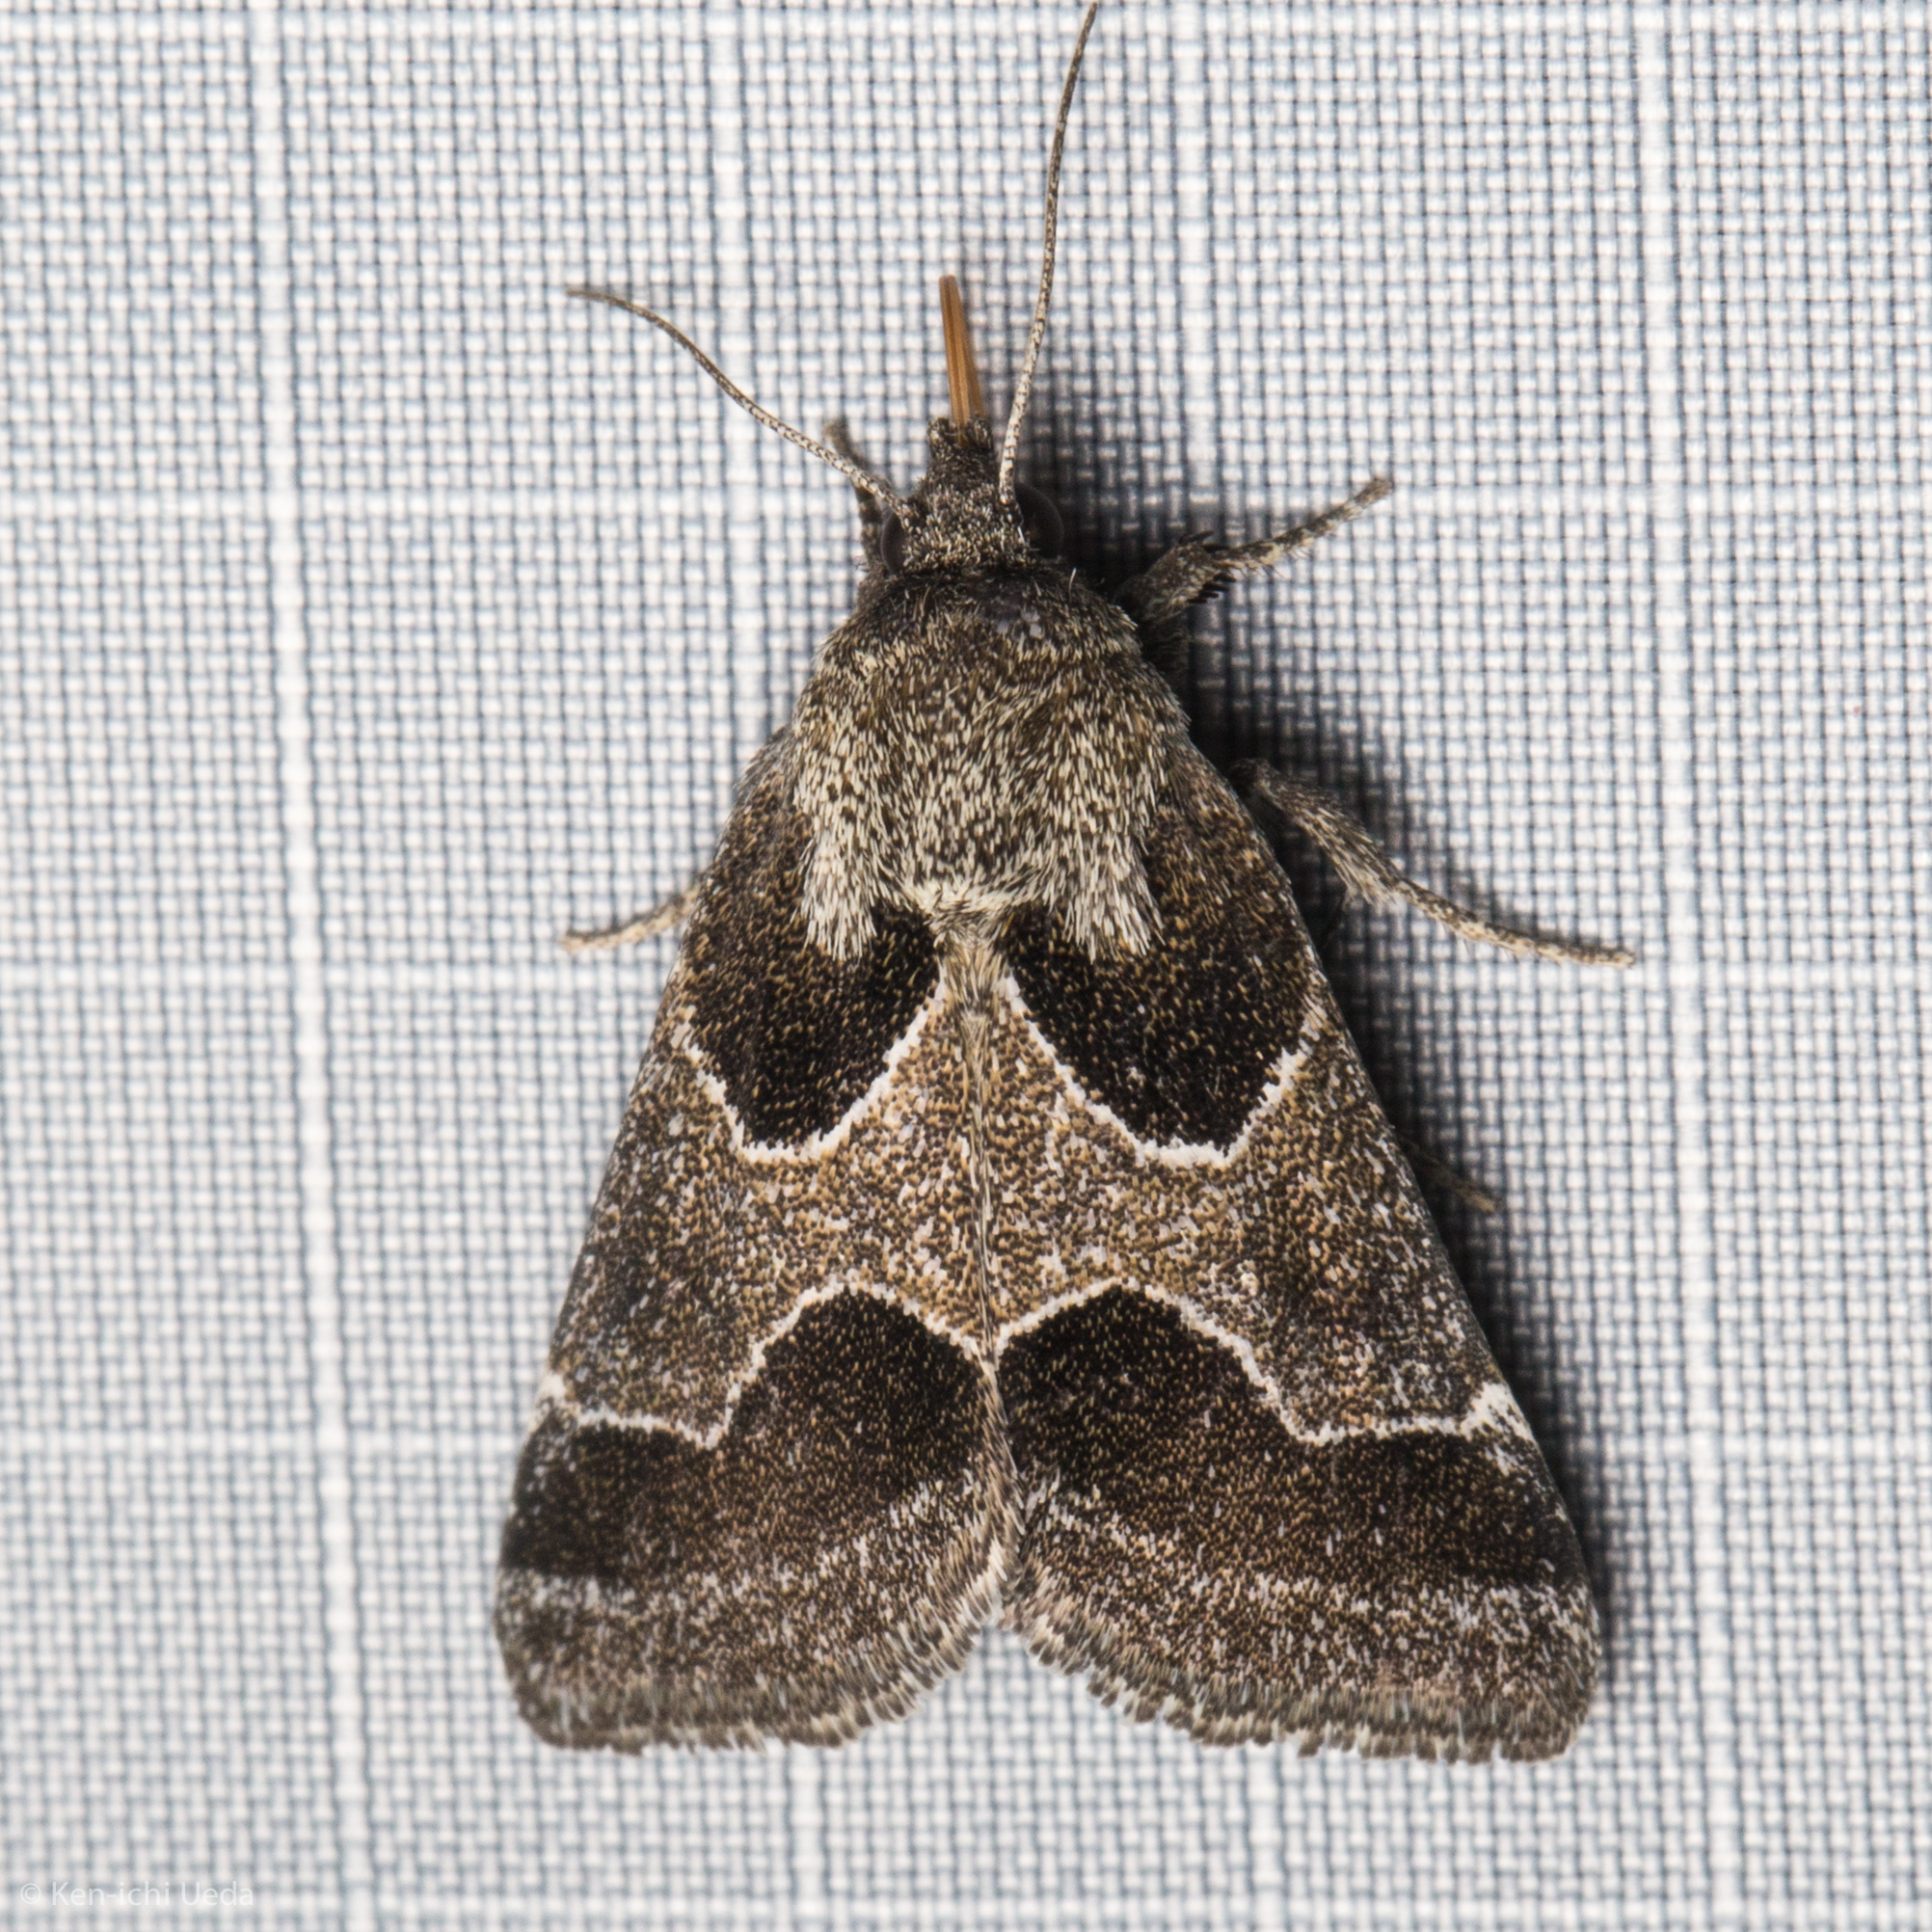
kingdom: Animalia
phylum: Arthropoda
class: Insecta
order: Lepidoptera
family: Noctuidae
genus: Schinia
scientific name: Schinia rivulosa
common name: Scarce meal-moth
